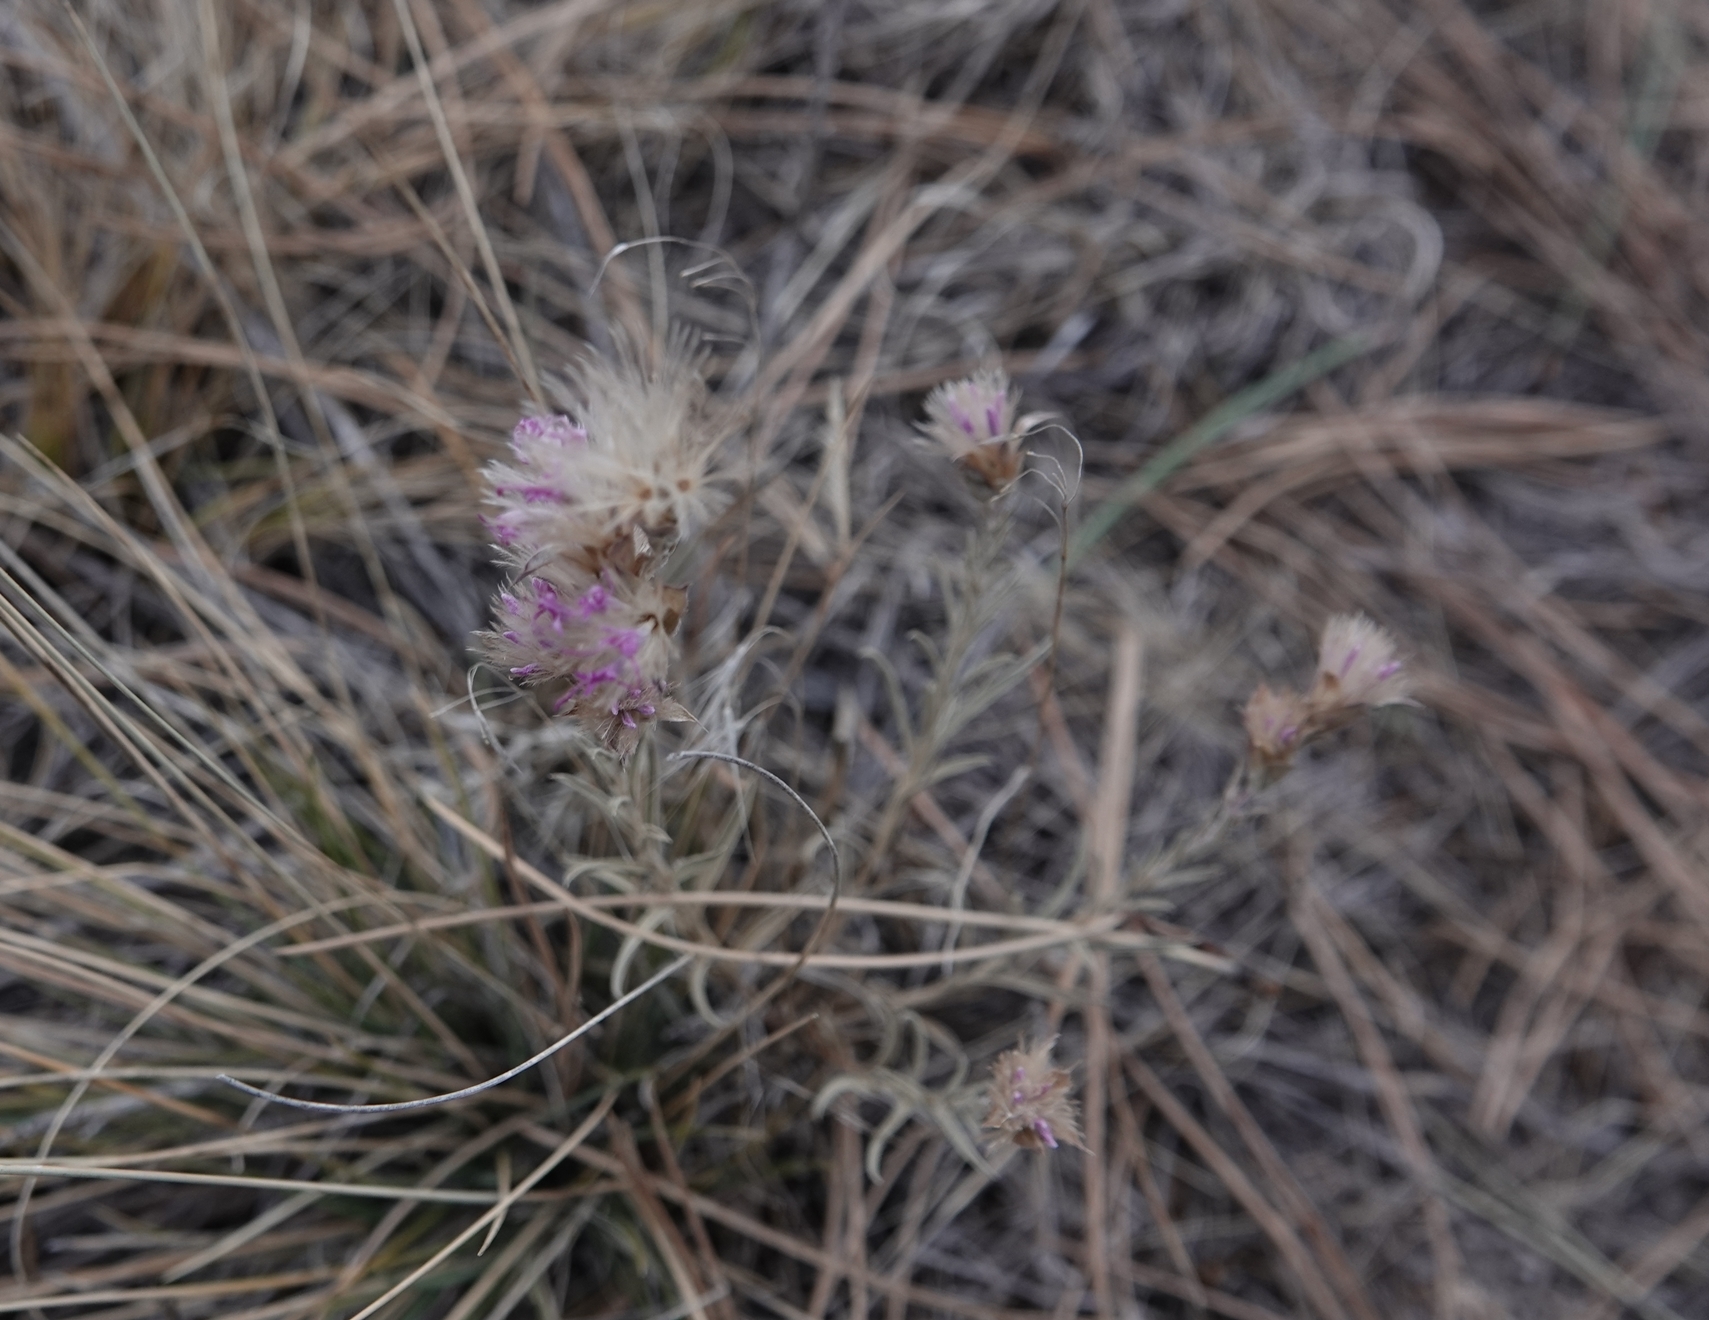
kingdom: Plantae
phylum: Tracheophyta
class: Magnoliopsida
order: Asterales
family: Asteraceae
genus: Liatris
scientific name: Liatris punctata
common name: Dotted gayfeather
